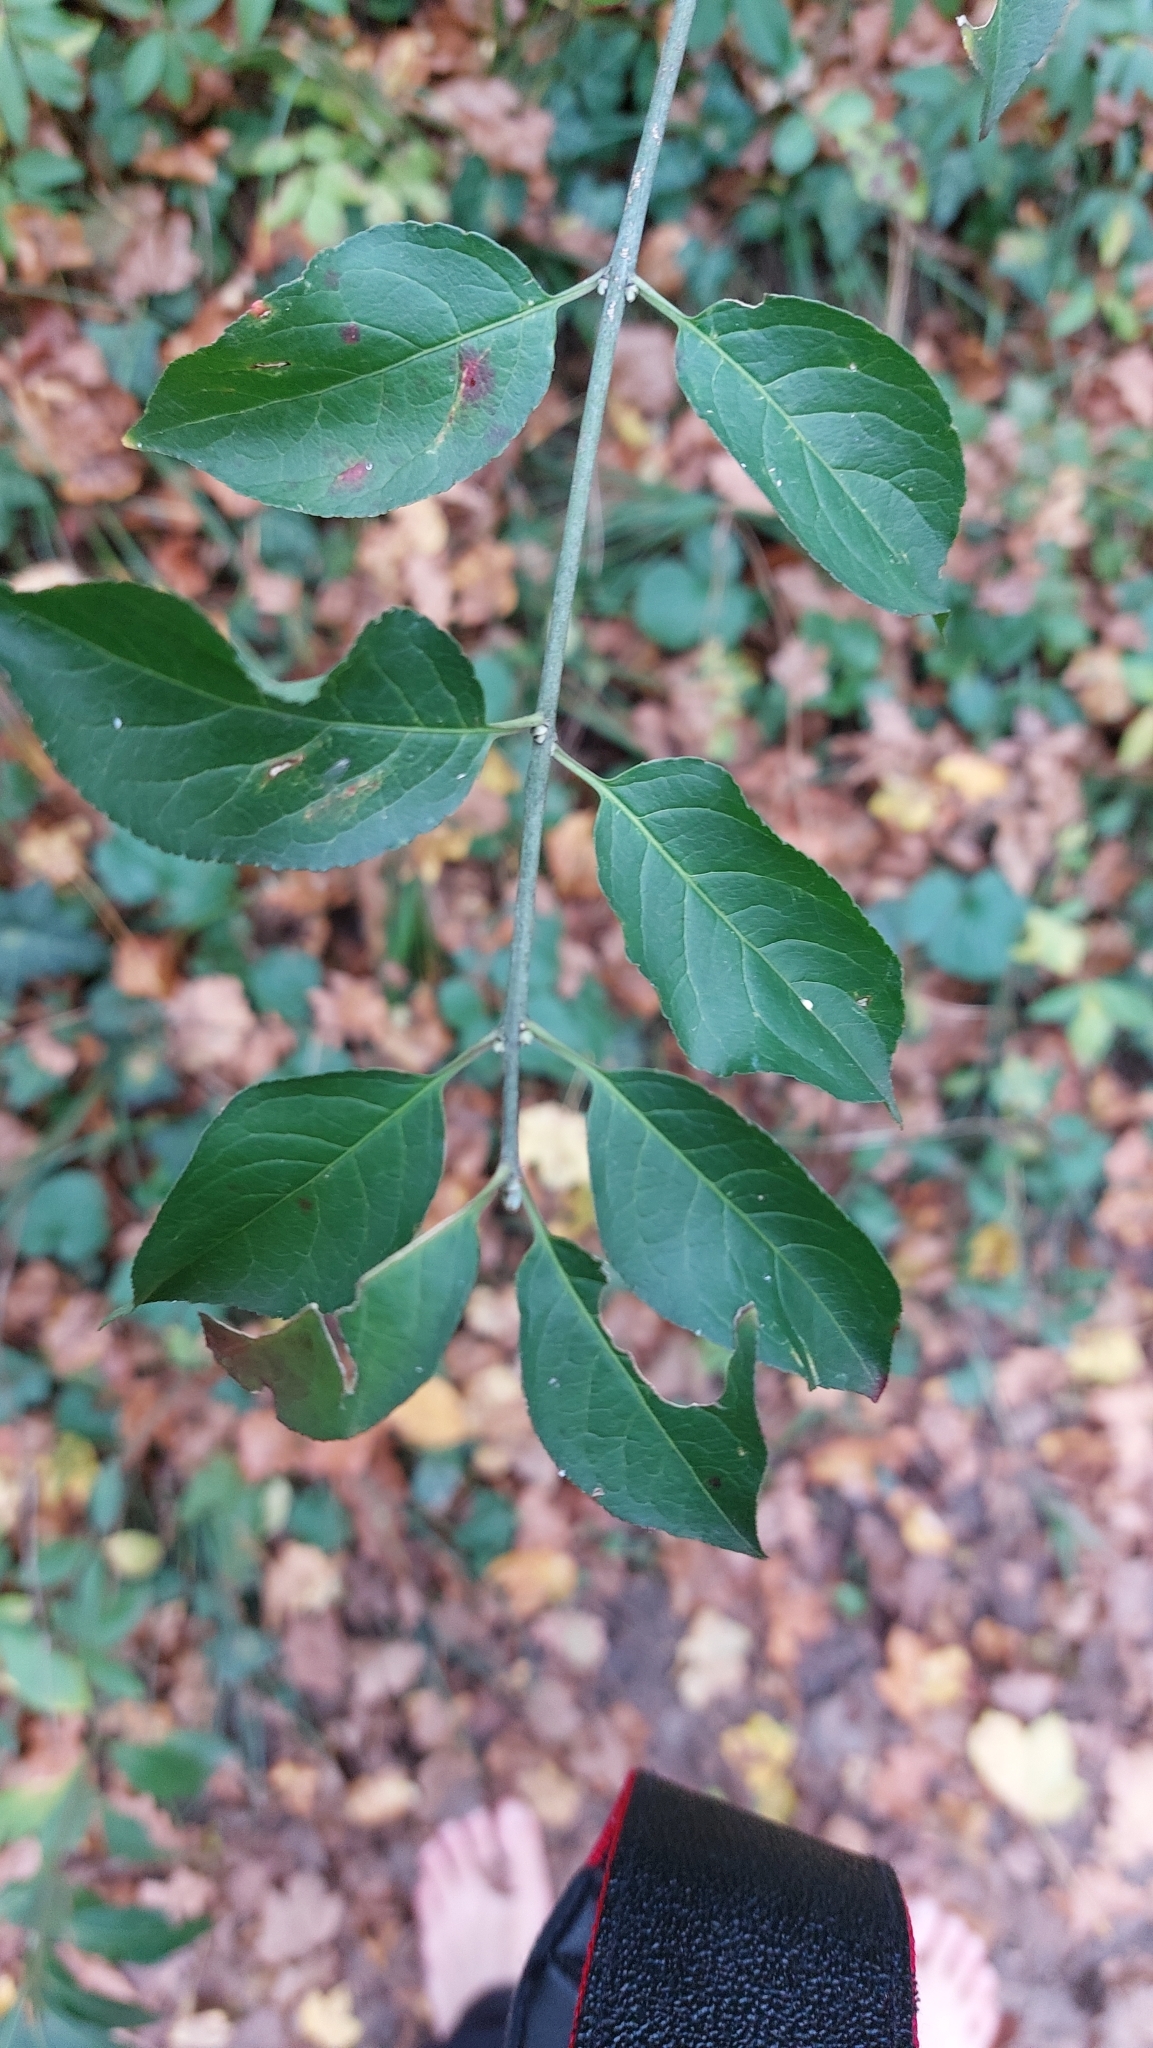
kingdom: Plantae
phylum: Tracheophyta
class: Magnoliopsida
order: Celastrales
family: Celastraceae
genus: Euonymus
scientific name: Euonymus europaeus
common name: Spindle
